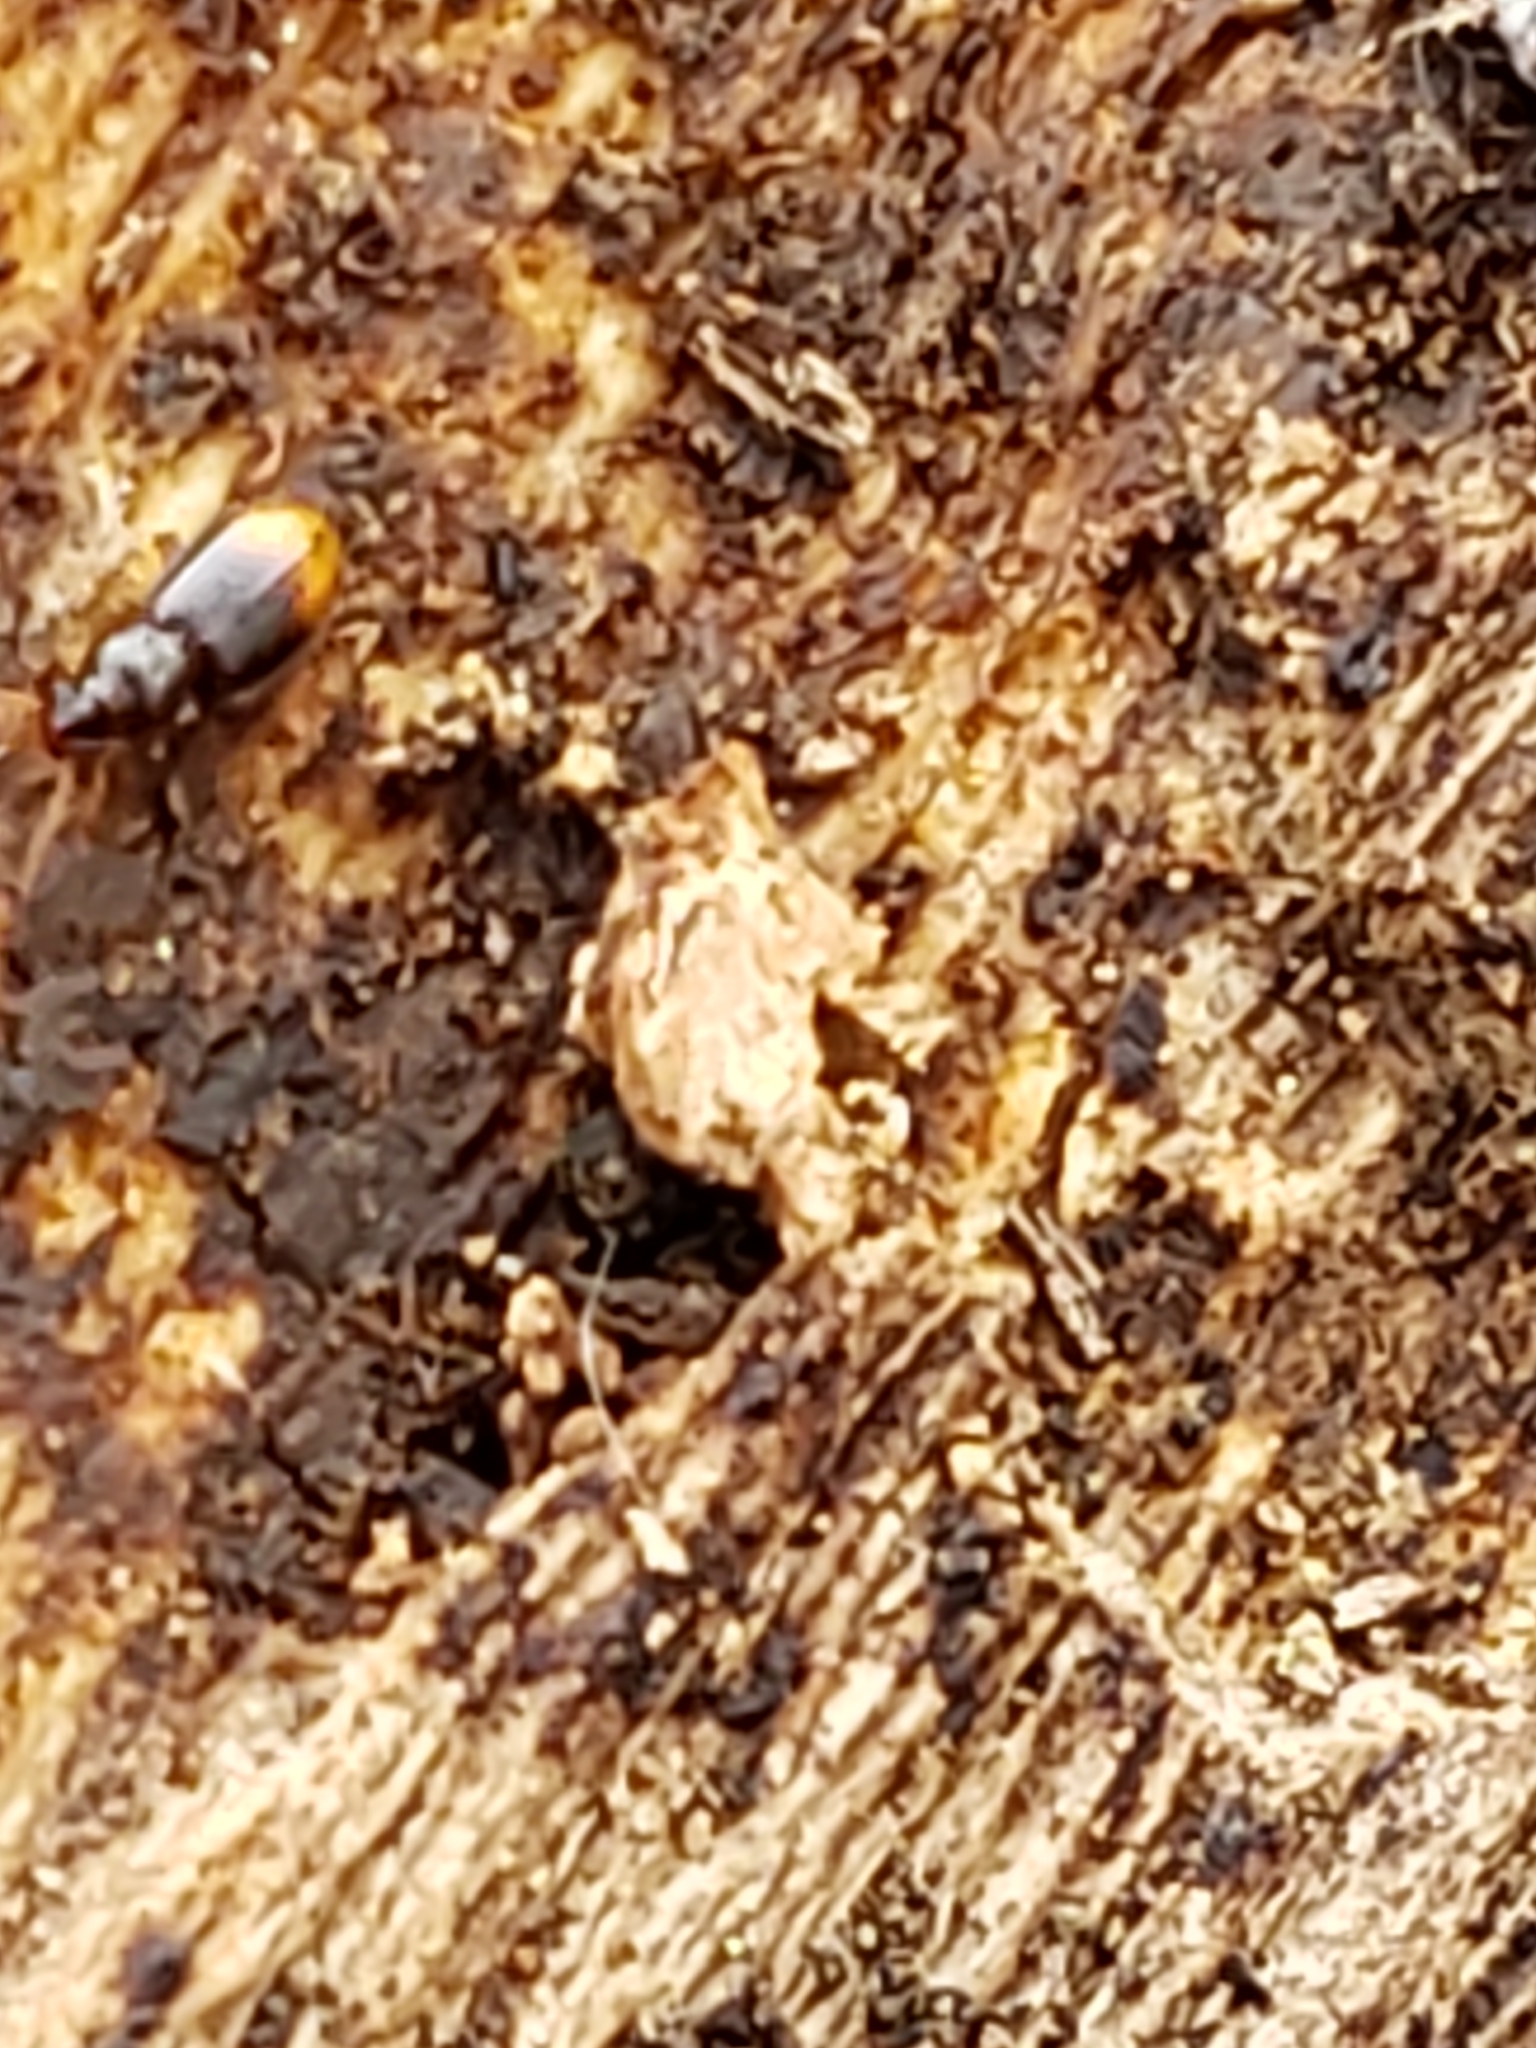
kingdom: Animalia
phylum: Arthropoda
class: Insecta
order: Coleoptera
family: Carabidae
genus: Mioptachys
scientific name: Mioptachys flavicauda
